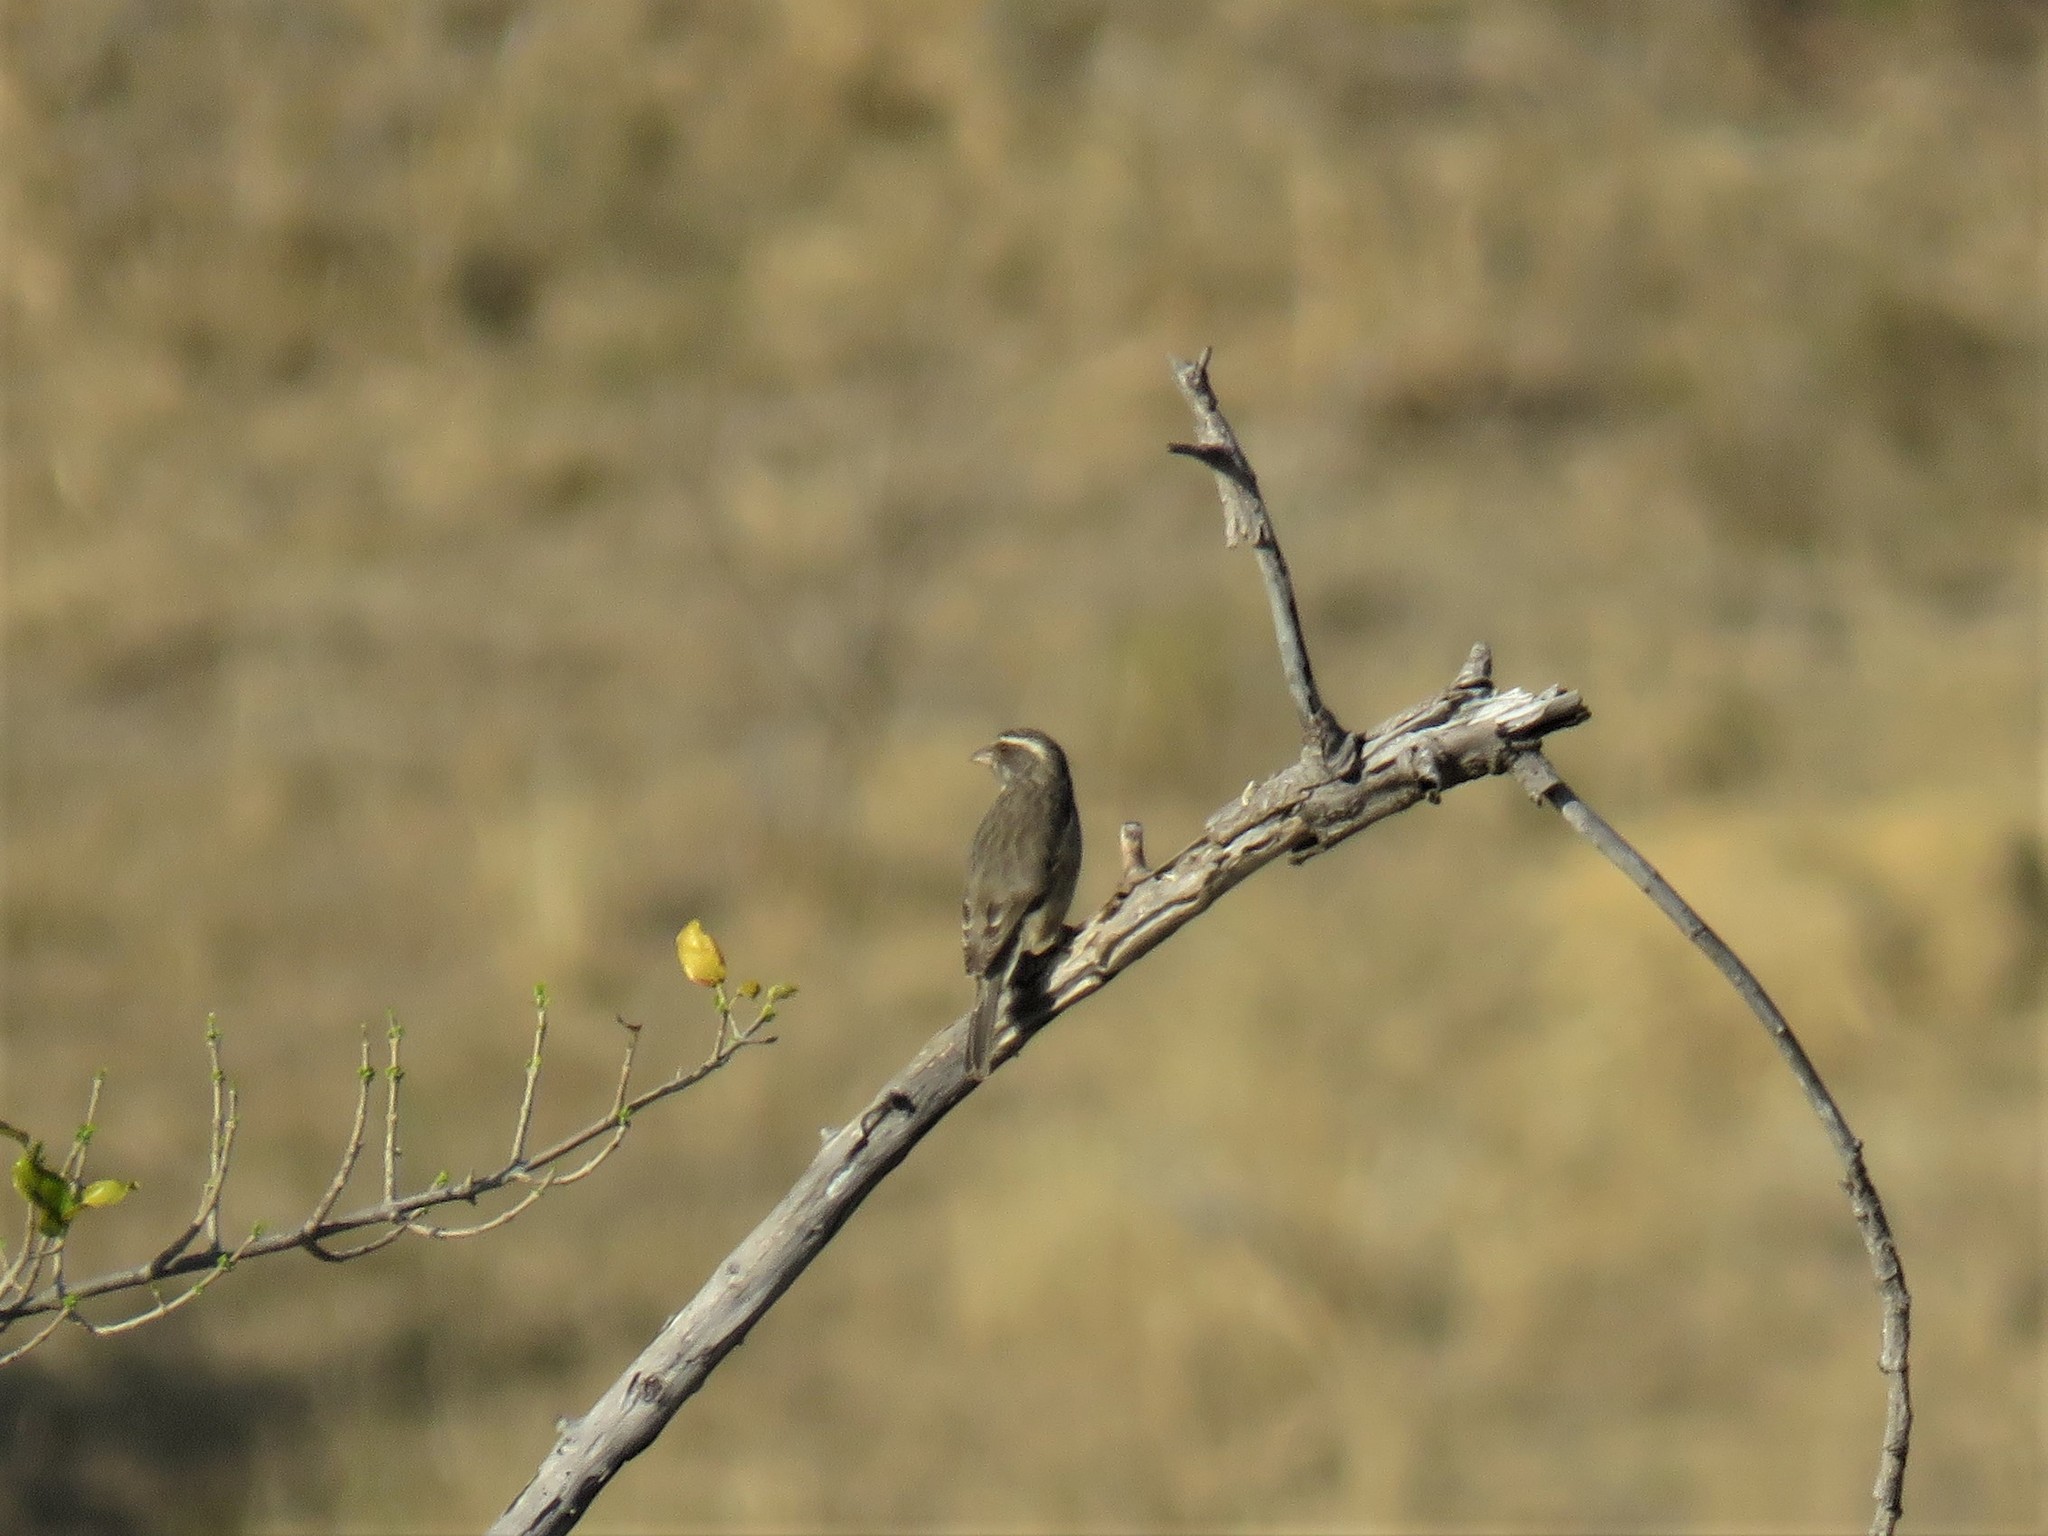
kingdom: Animalia
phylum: Chordata
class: Aves
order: Passeriformes
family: Fringillidae
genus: Crithagra
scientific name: Crithagra gularis
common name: Streaky-headed seedeater
